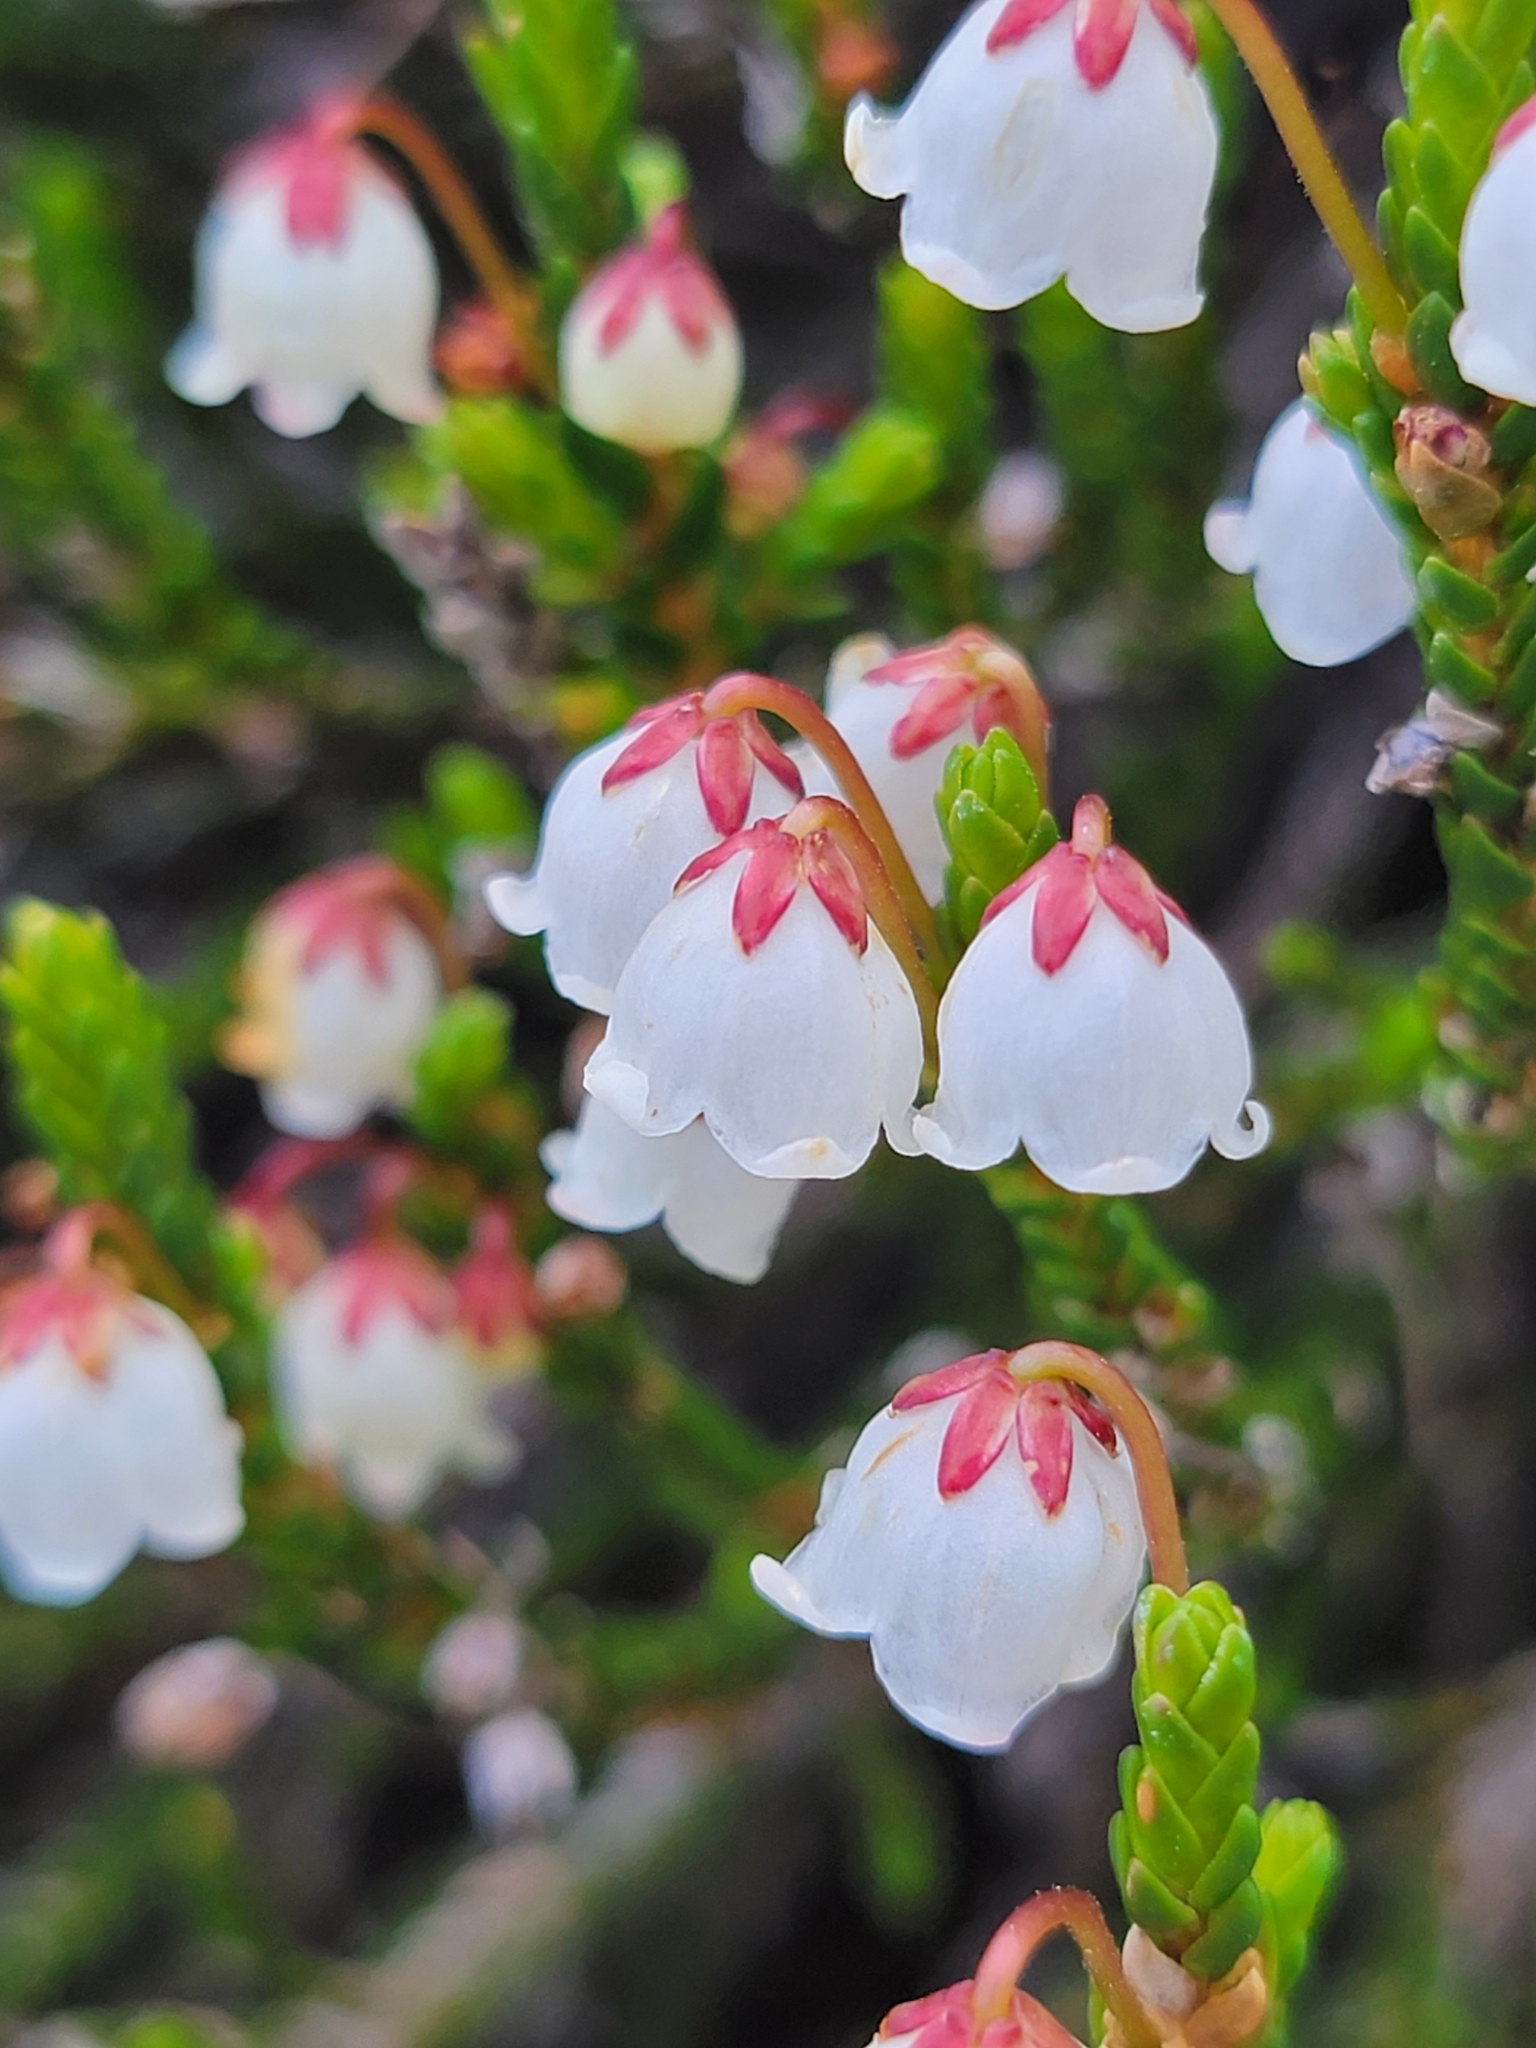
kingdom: Plantae
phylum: Tracheophyta
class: Magnoliopsida
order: Ericales
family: Ericaceae
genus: Cassiope
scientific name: Cassiope mertensiana
